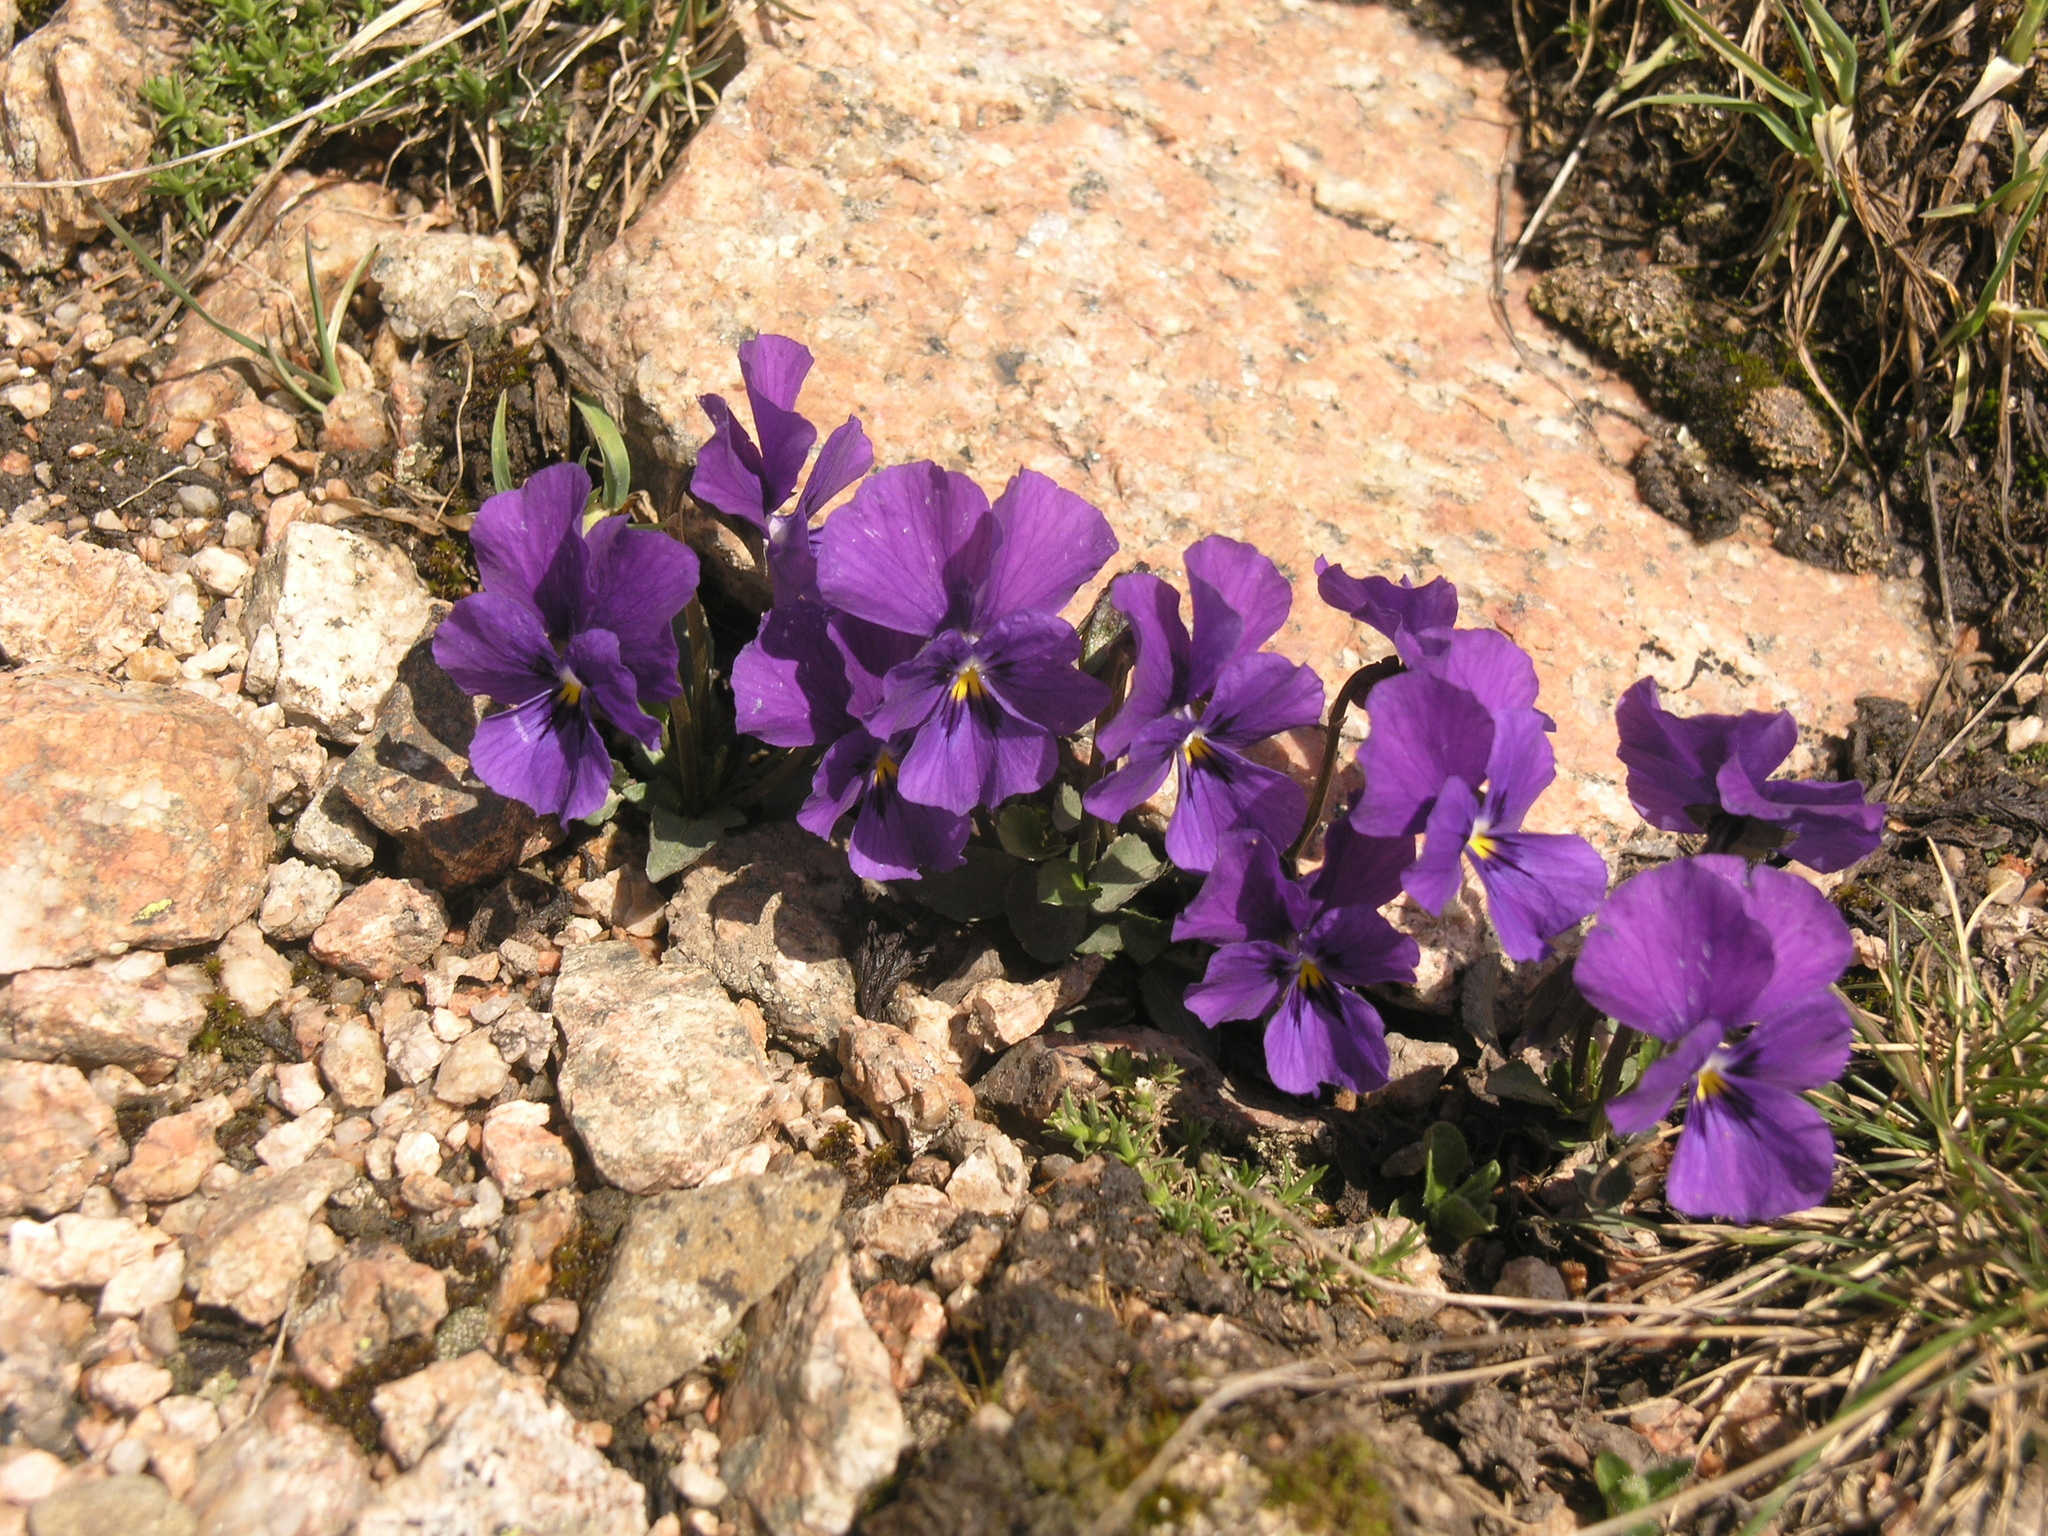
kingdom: Plantae
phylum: Tracheophyta
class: Magnoliopsida
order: Malpighiales
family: Violaceae
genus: Viola
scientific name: Viola altaica
